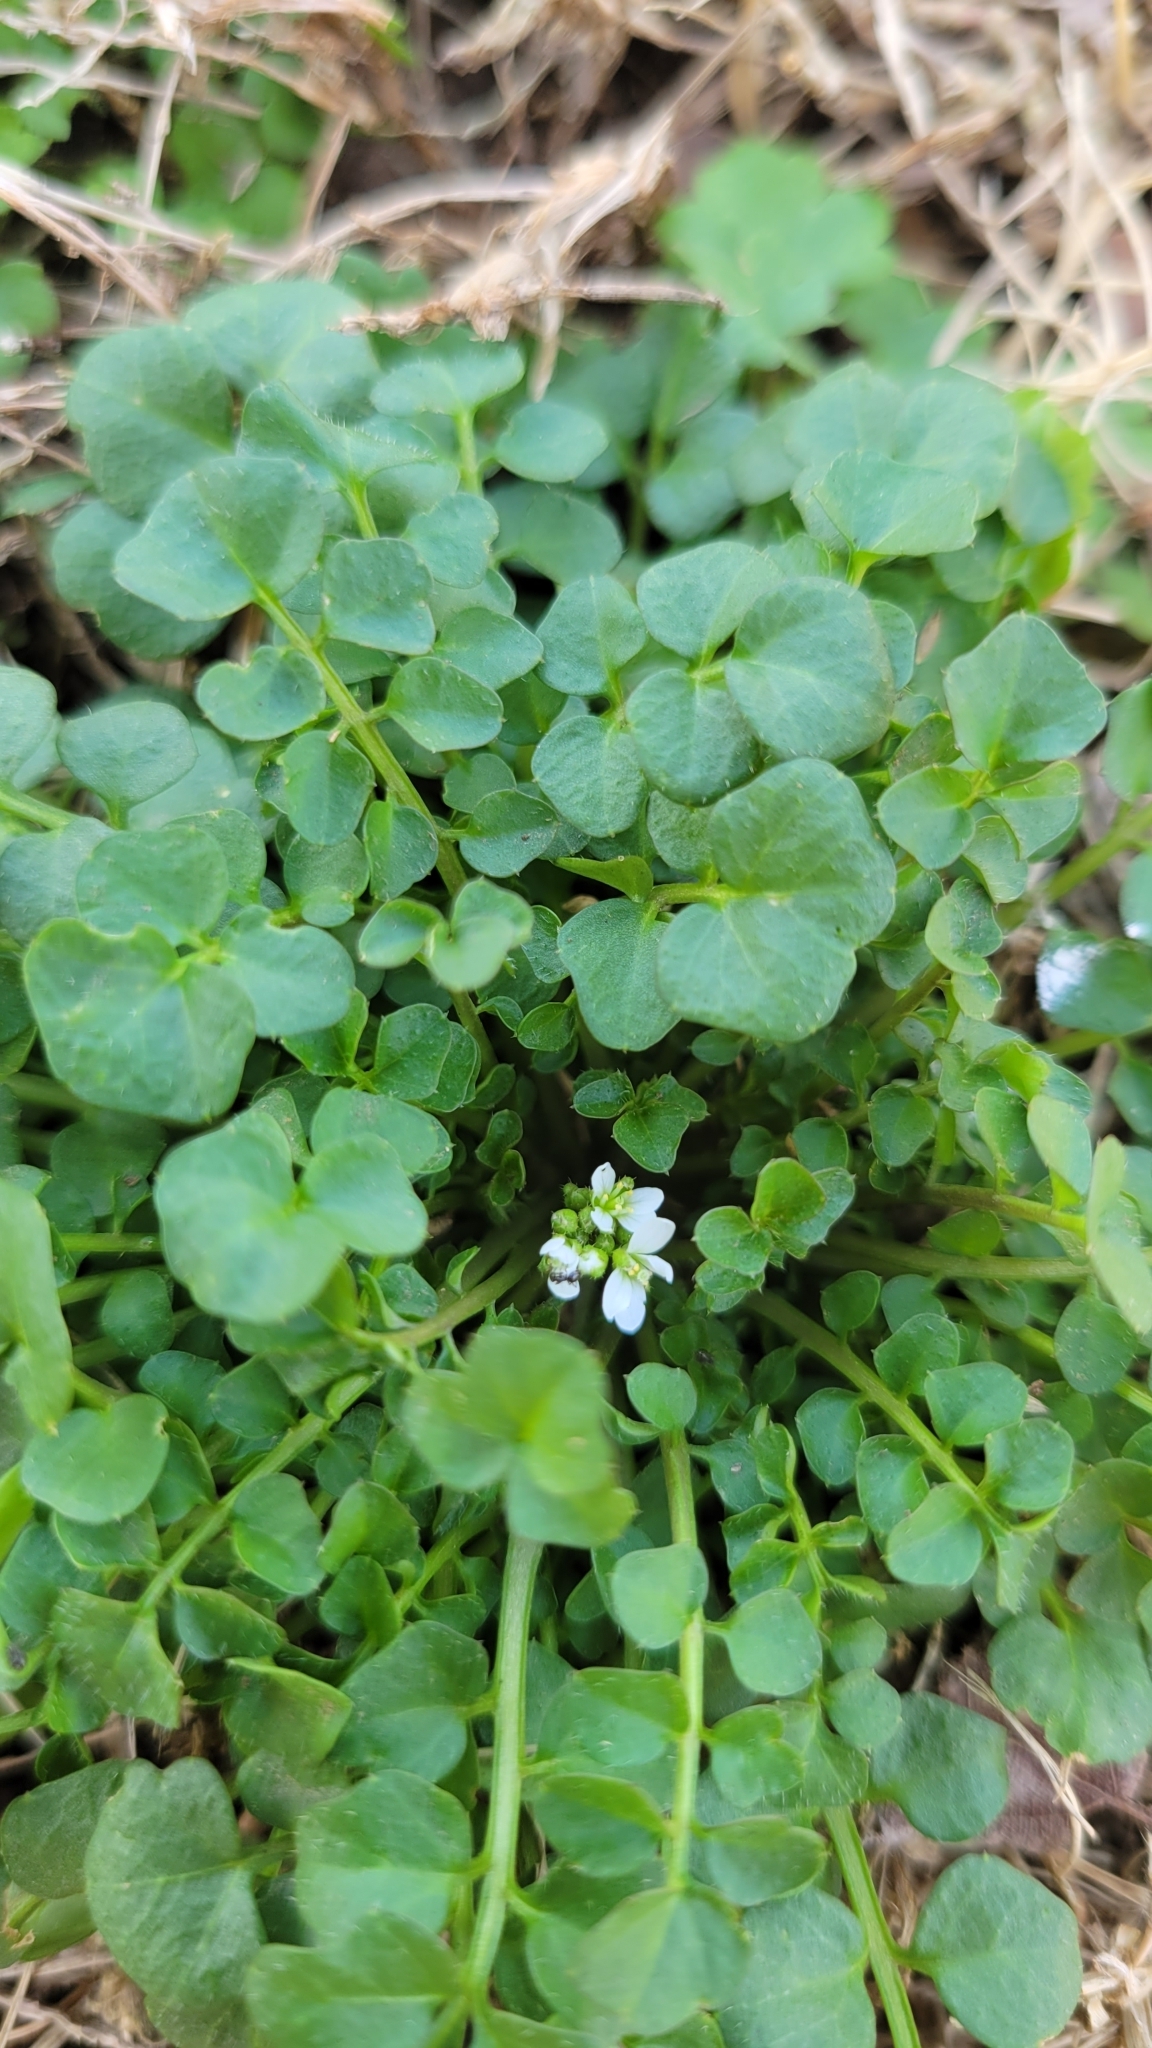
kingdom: Plantae
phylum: Tracheophyta
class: Magnoliopsida
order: Brassicales
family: Brassicaceae
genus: Cardamine
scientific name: Cardamine hirsuta
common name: Hairy bittercress
